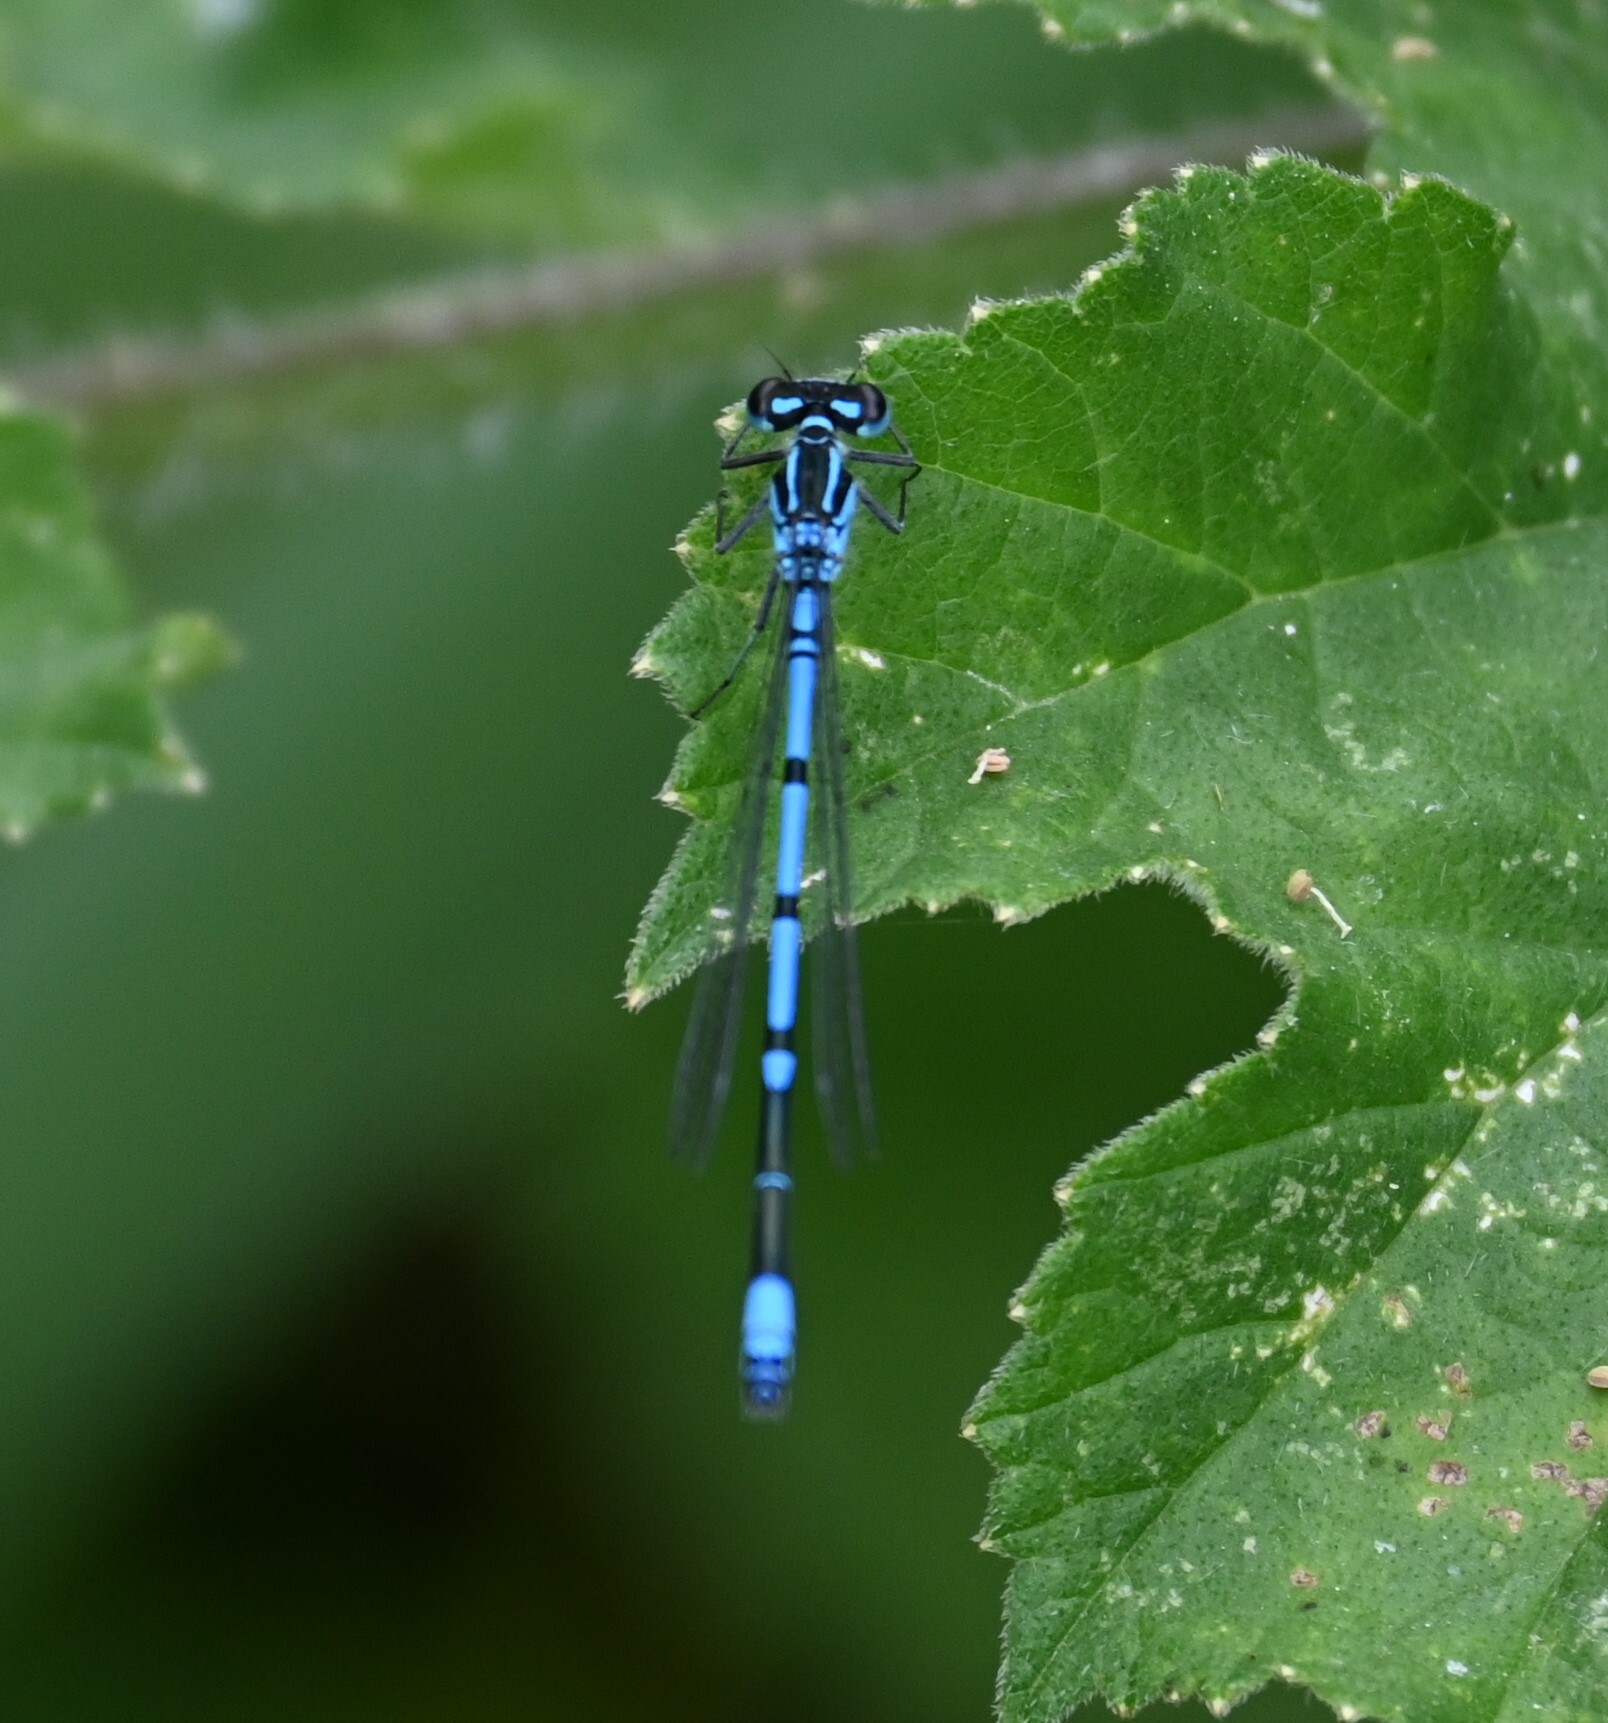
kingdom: Animalia
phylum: Arthropoda
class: Insecta
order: Odonata
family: Coenagrionidae
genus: Coenagrion
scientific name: Coenagrion puella
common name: Azure damselfly
